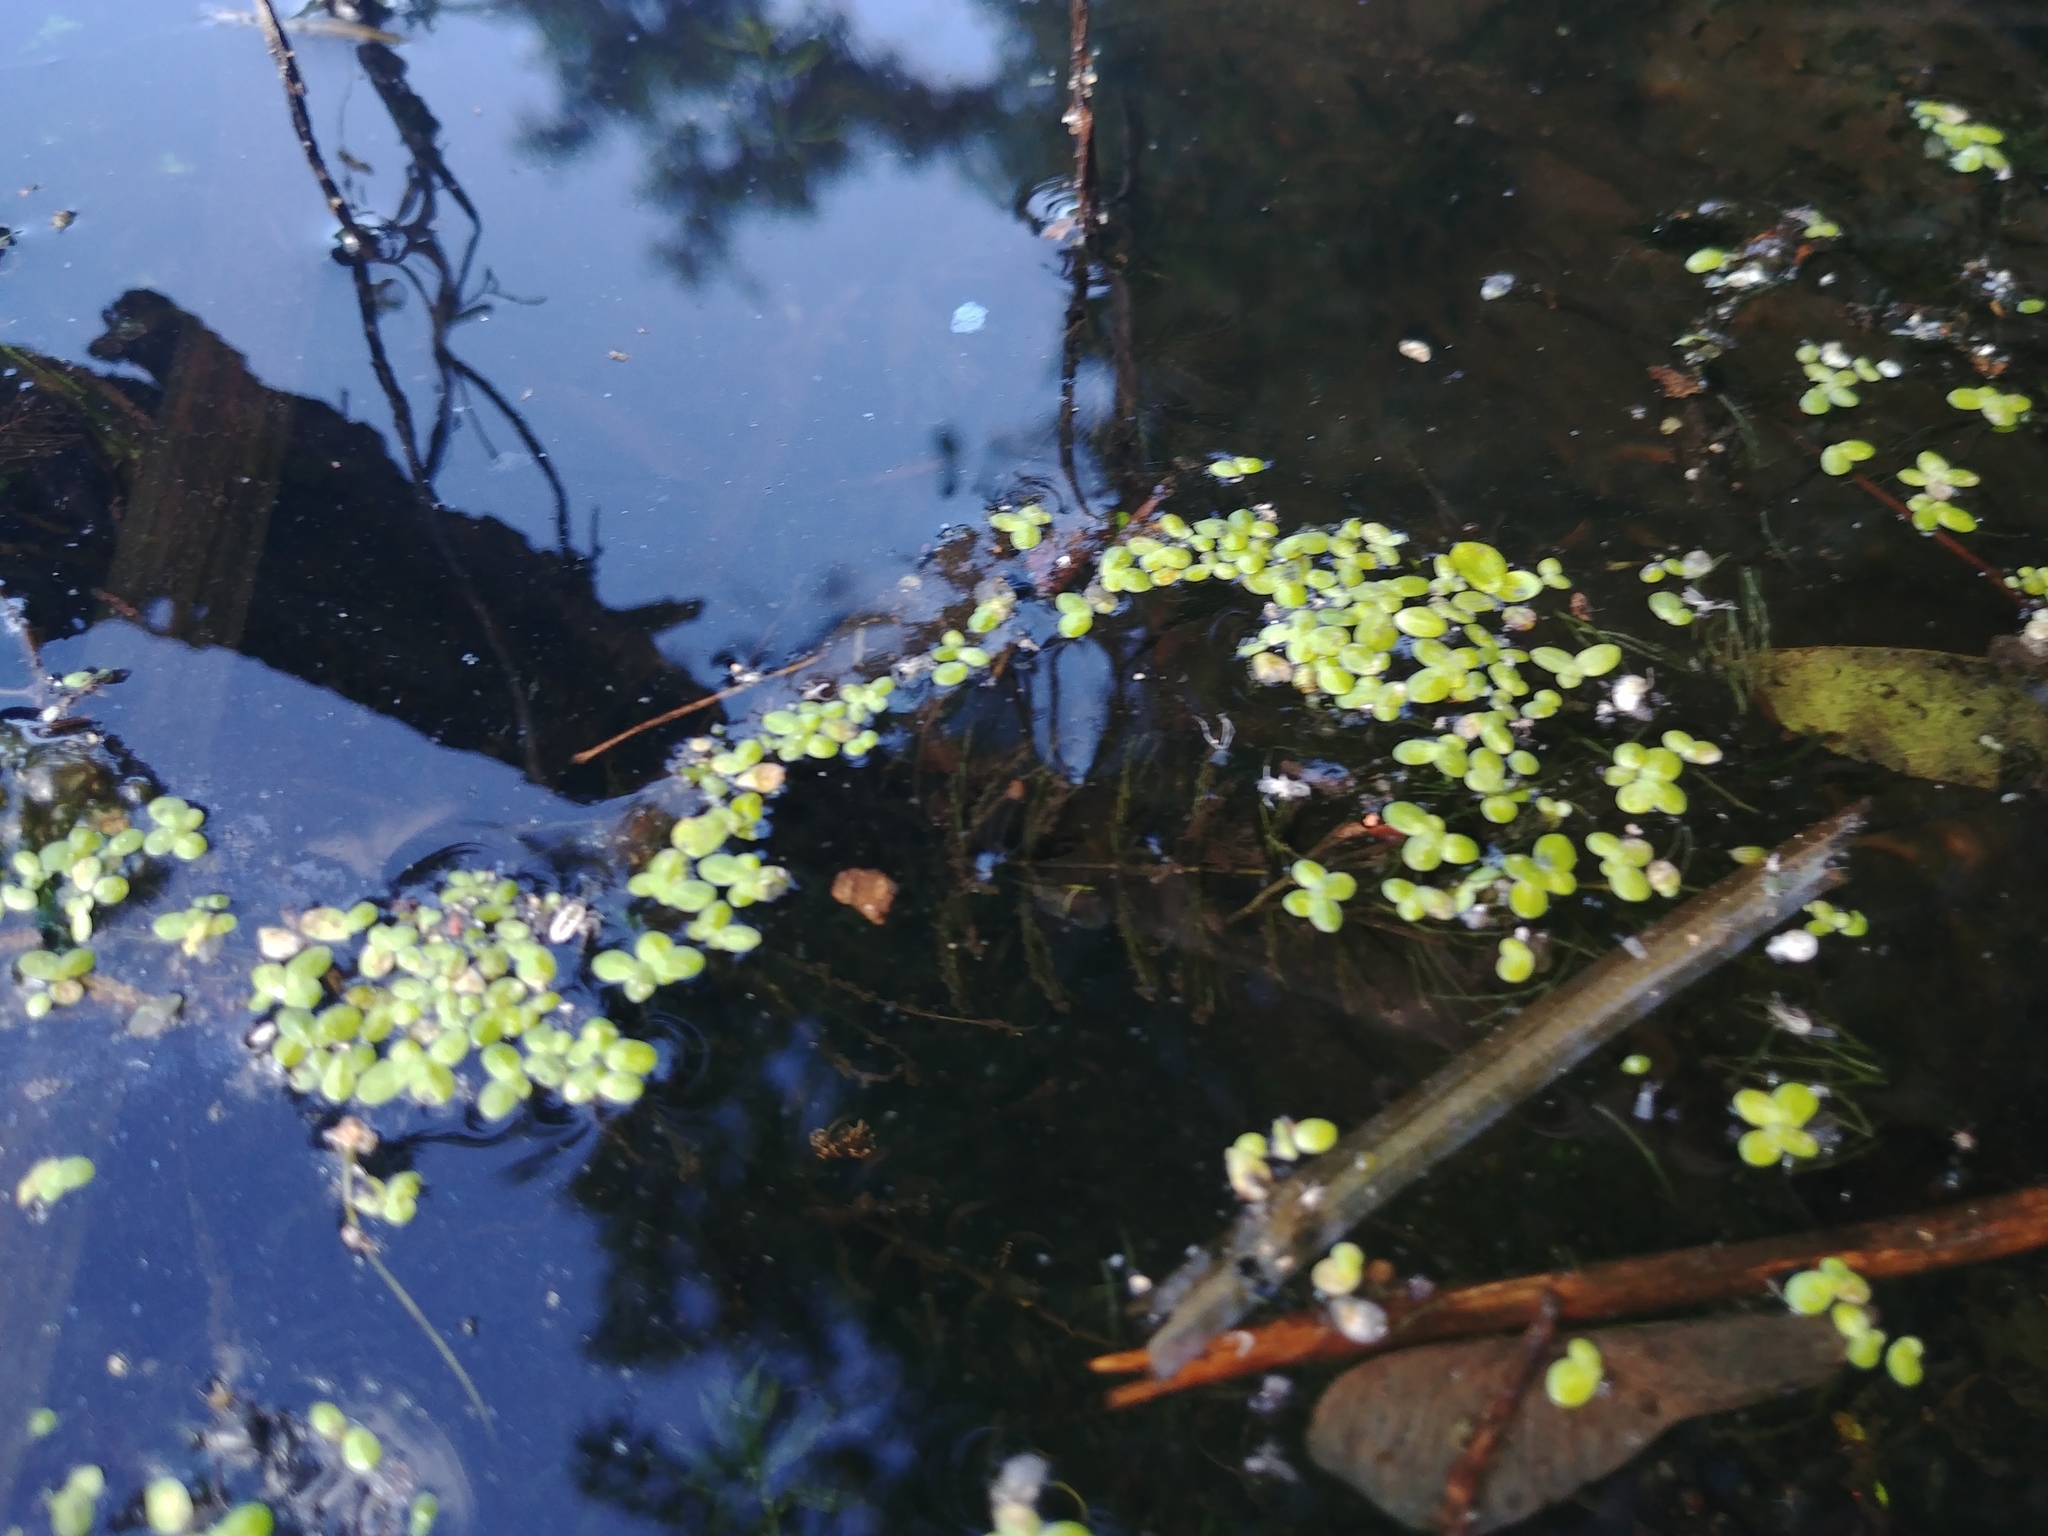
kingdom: Plantae
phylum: Tracheophyta
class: Liliopsida
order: Alismatales
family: Araceae
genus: Lemna
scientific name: Lemna minor
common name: Common duckweed
